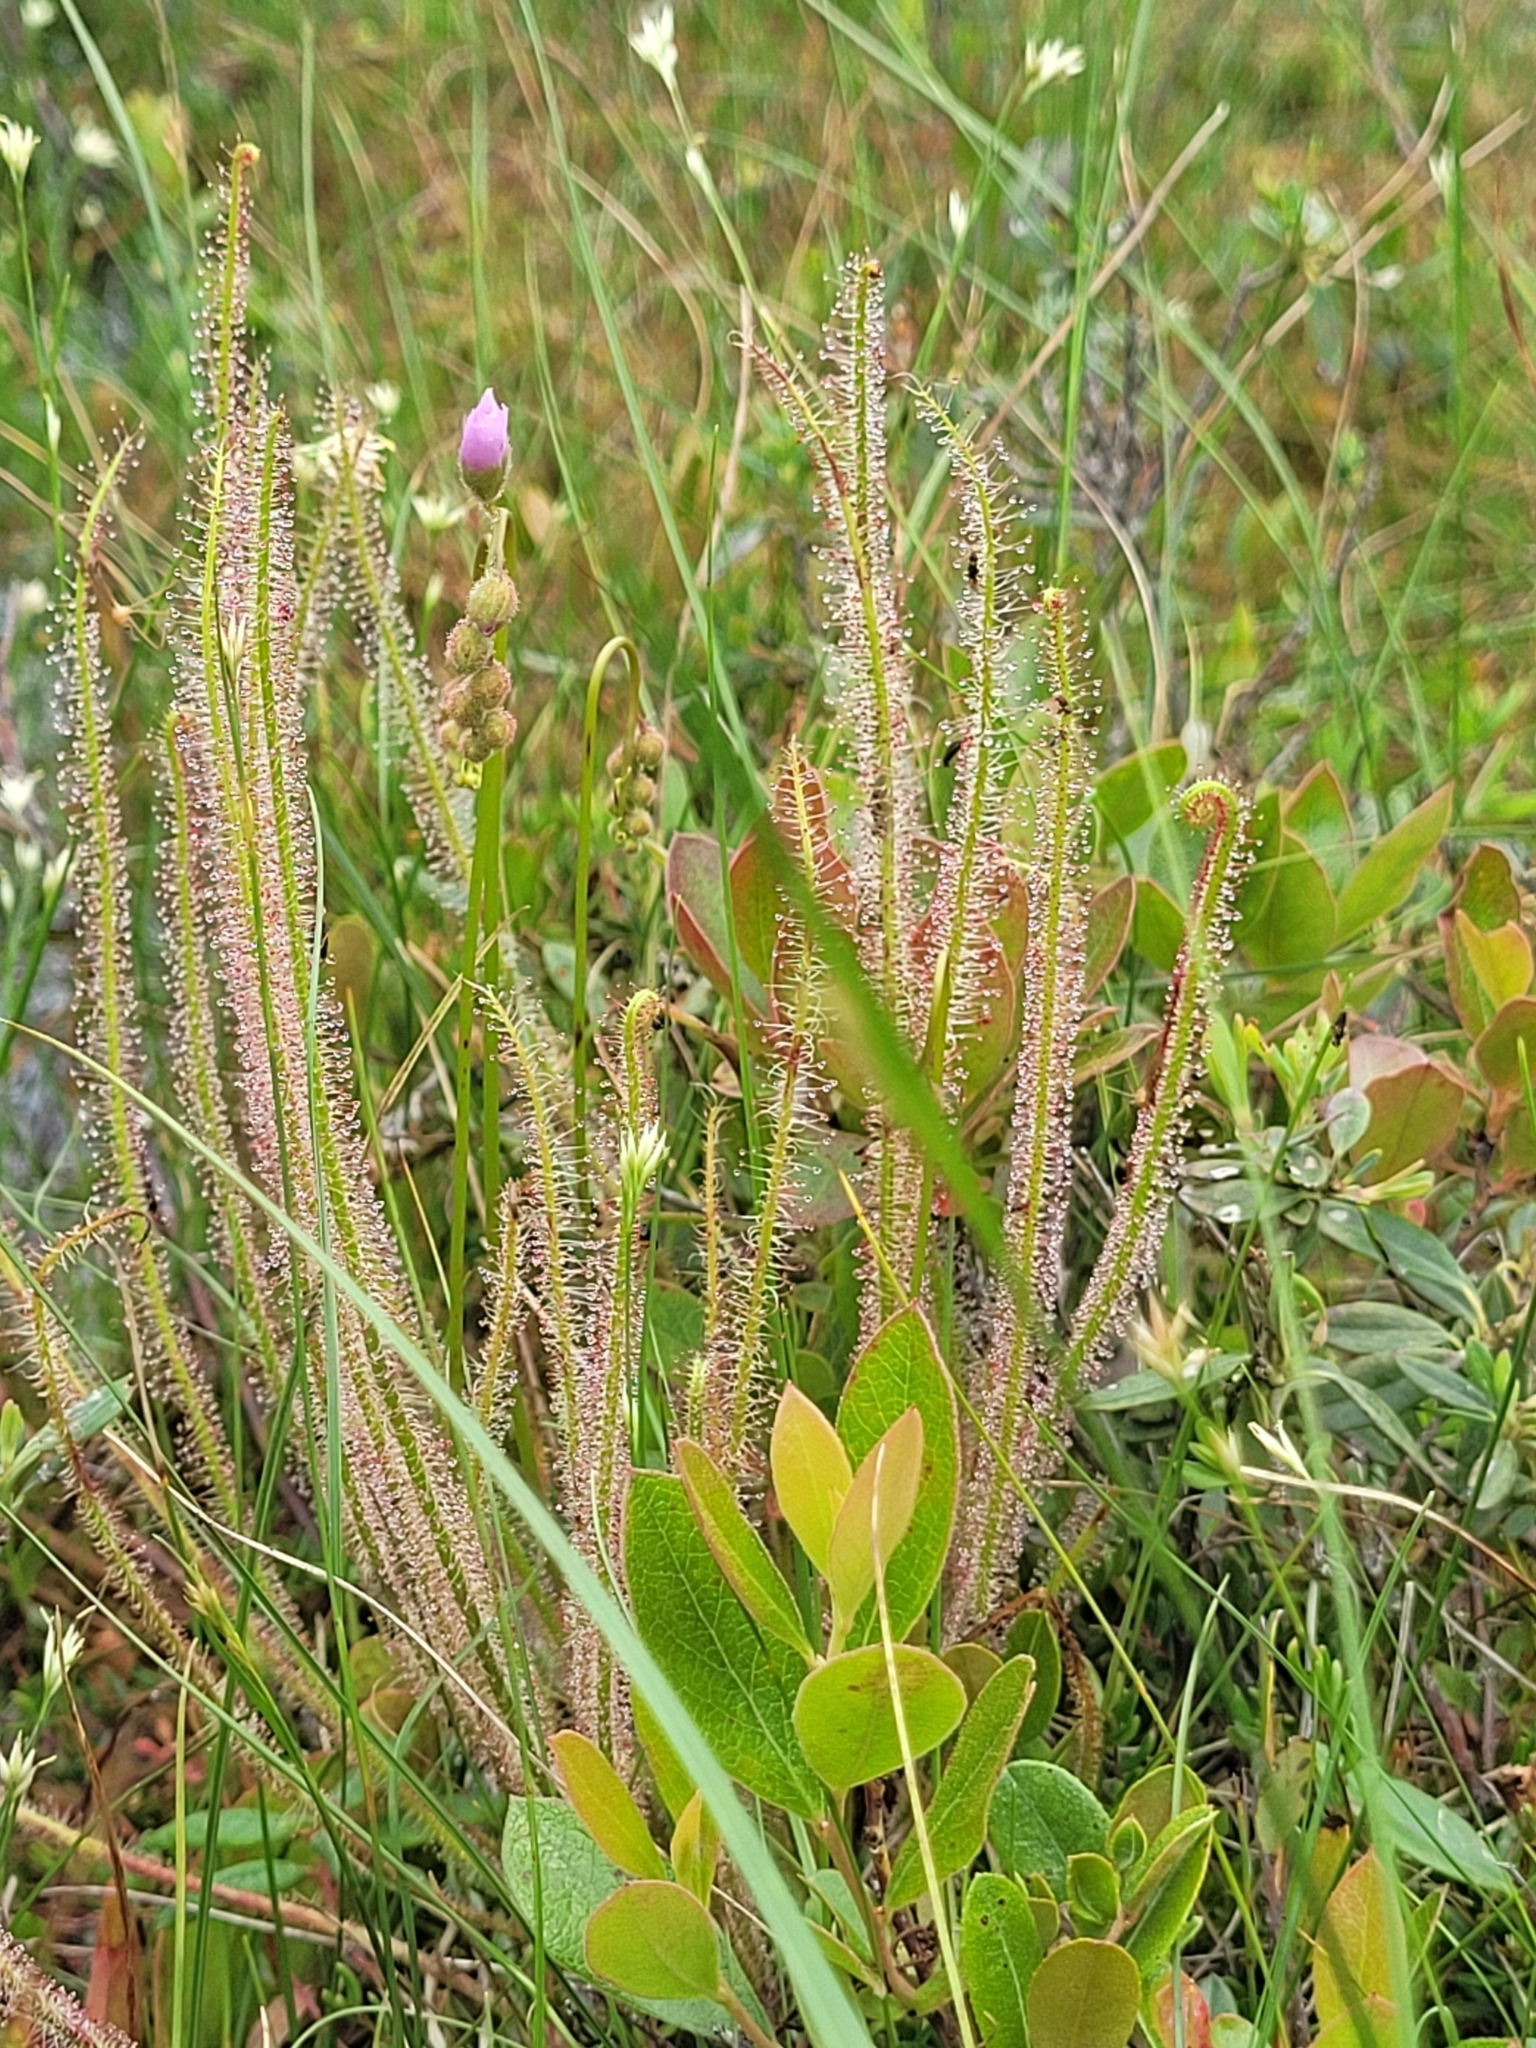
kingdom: Plantae
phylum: Tracheophyta
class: Magnoliopsida
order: Caryophyllales
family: Droseraceae
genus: Drosera
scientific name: Drosera filiformis
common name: Dew-thread
